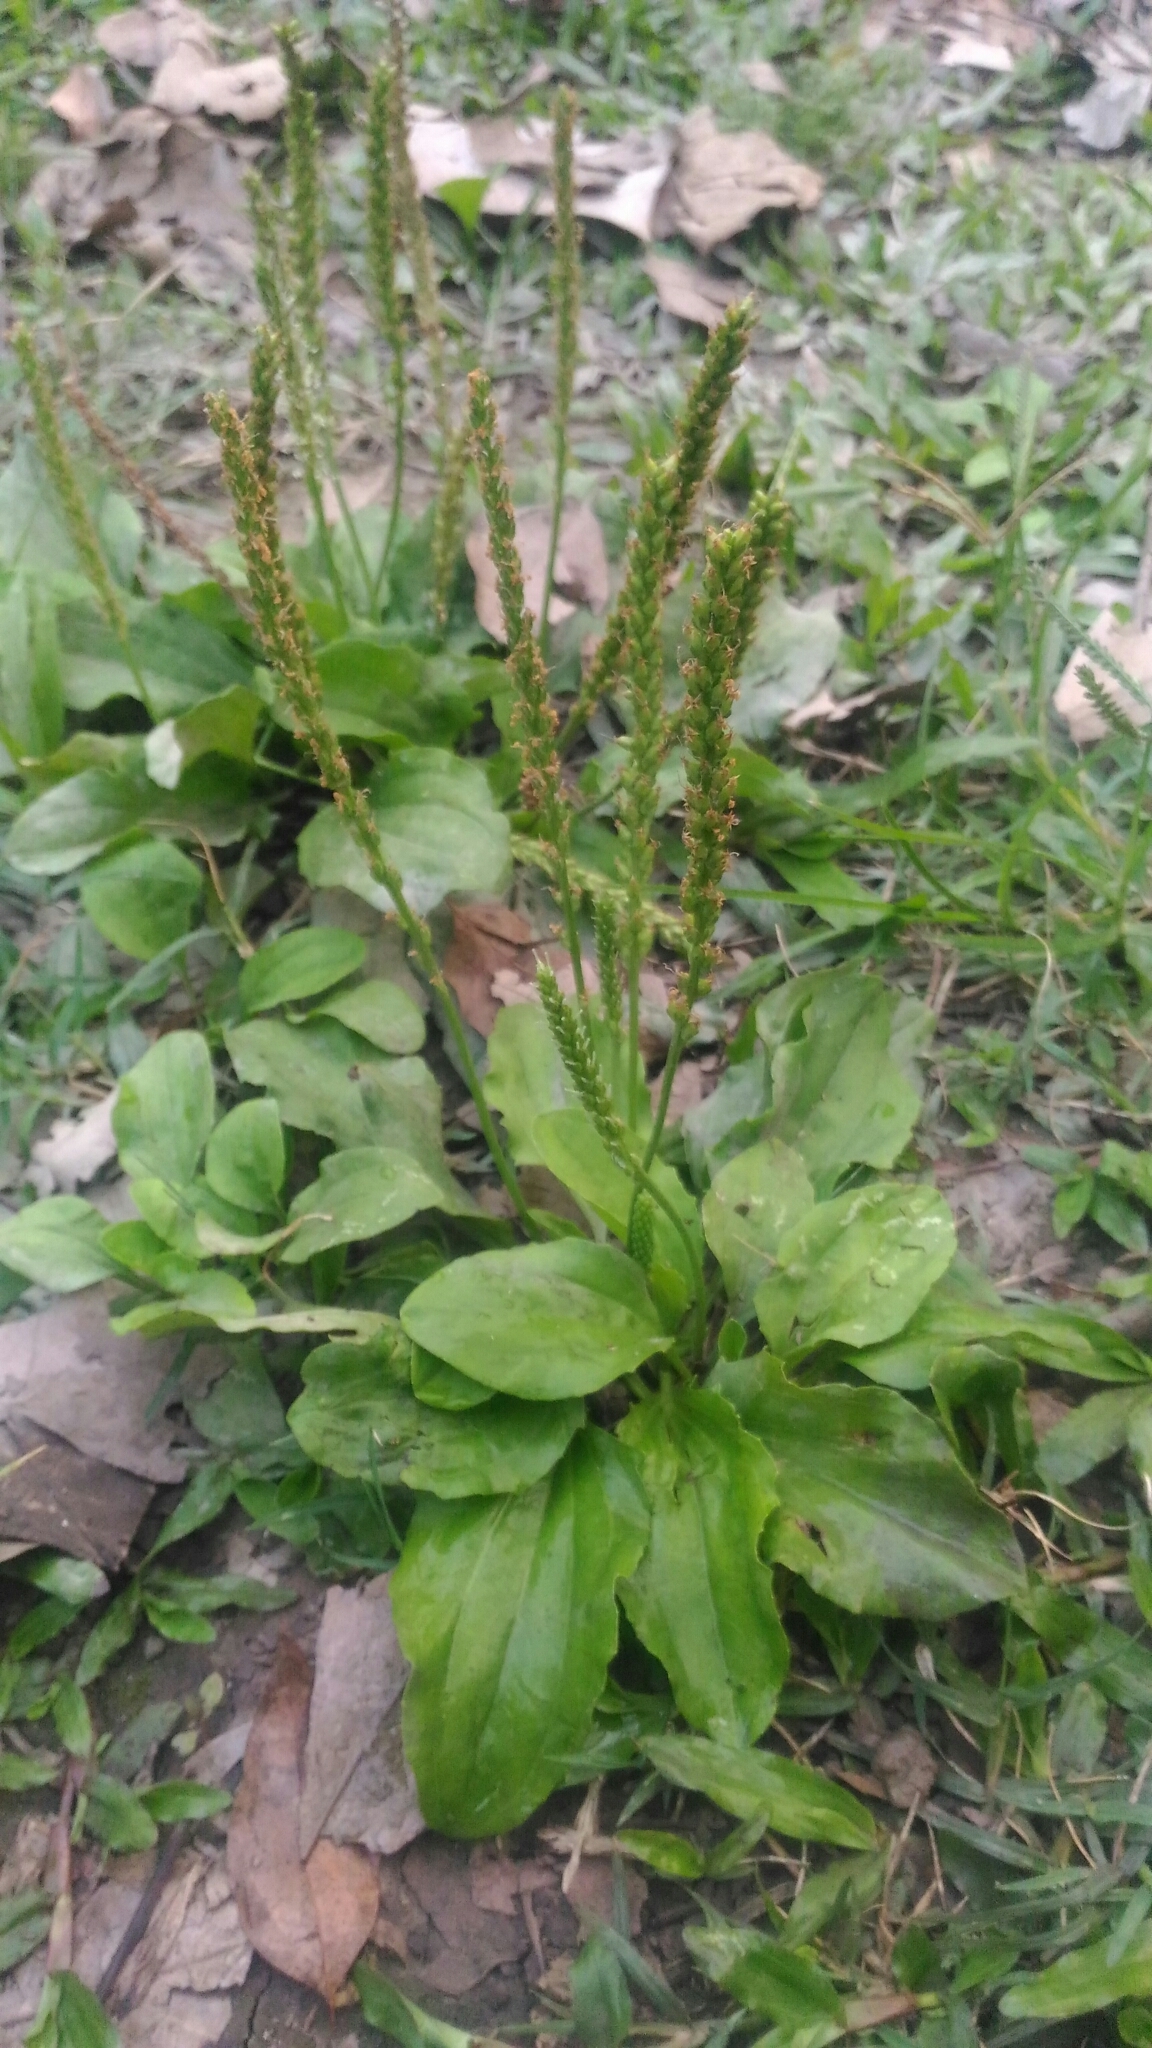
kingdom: Plantae
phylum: Tracheophyta
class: Magnoliopsida
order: Lamiales
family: Plantaginaceae
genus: Plantago
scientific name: Plantago asiatica
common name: Psyllium
